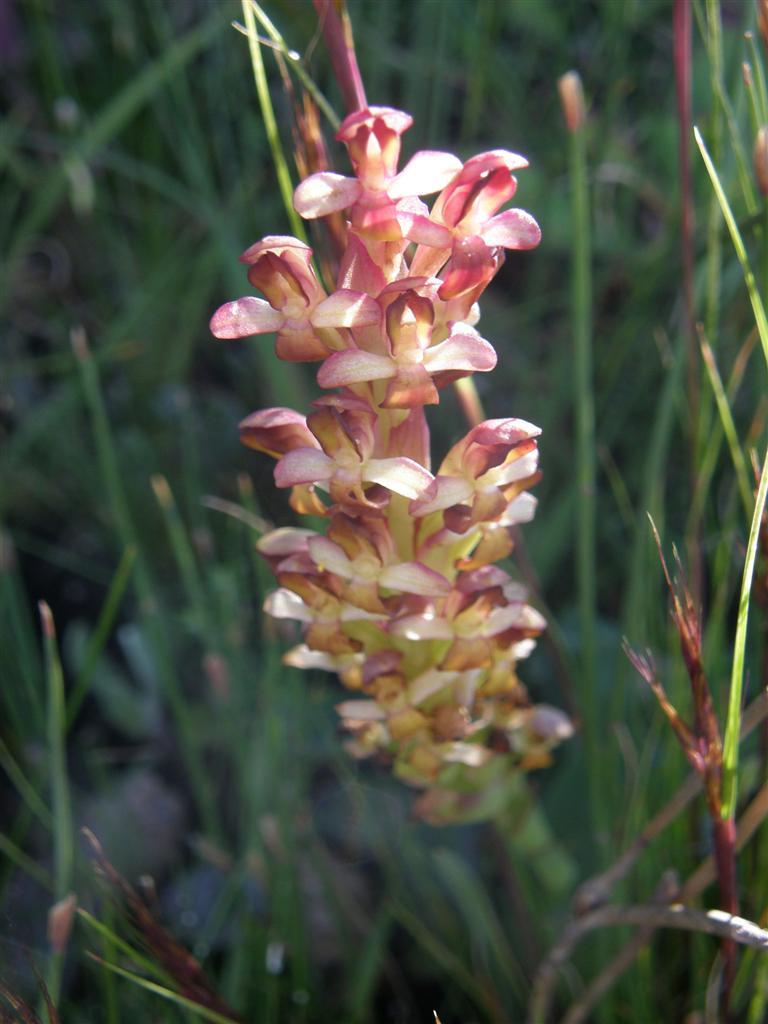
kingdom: Plantae
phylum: Tracheophyta
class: Liliopsida
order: Asparagales
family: Orchidaceae
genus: Disa
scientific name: Disa bolusiana
